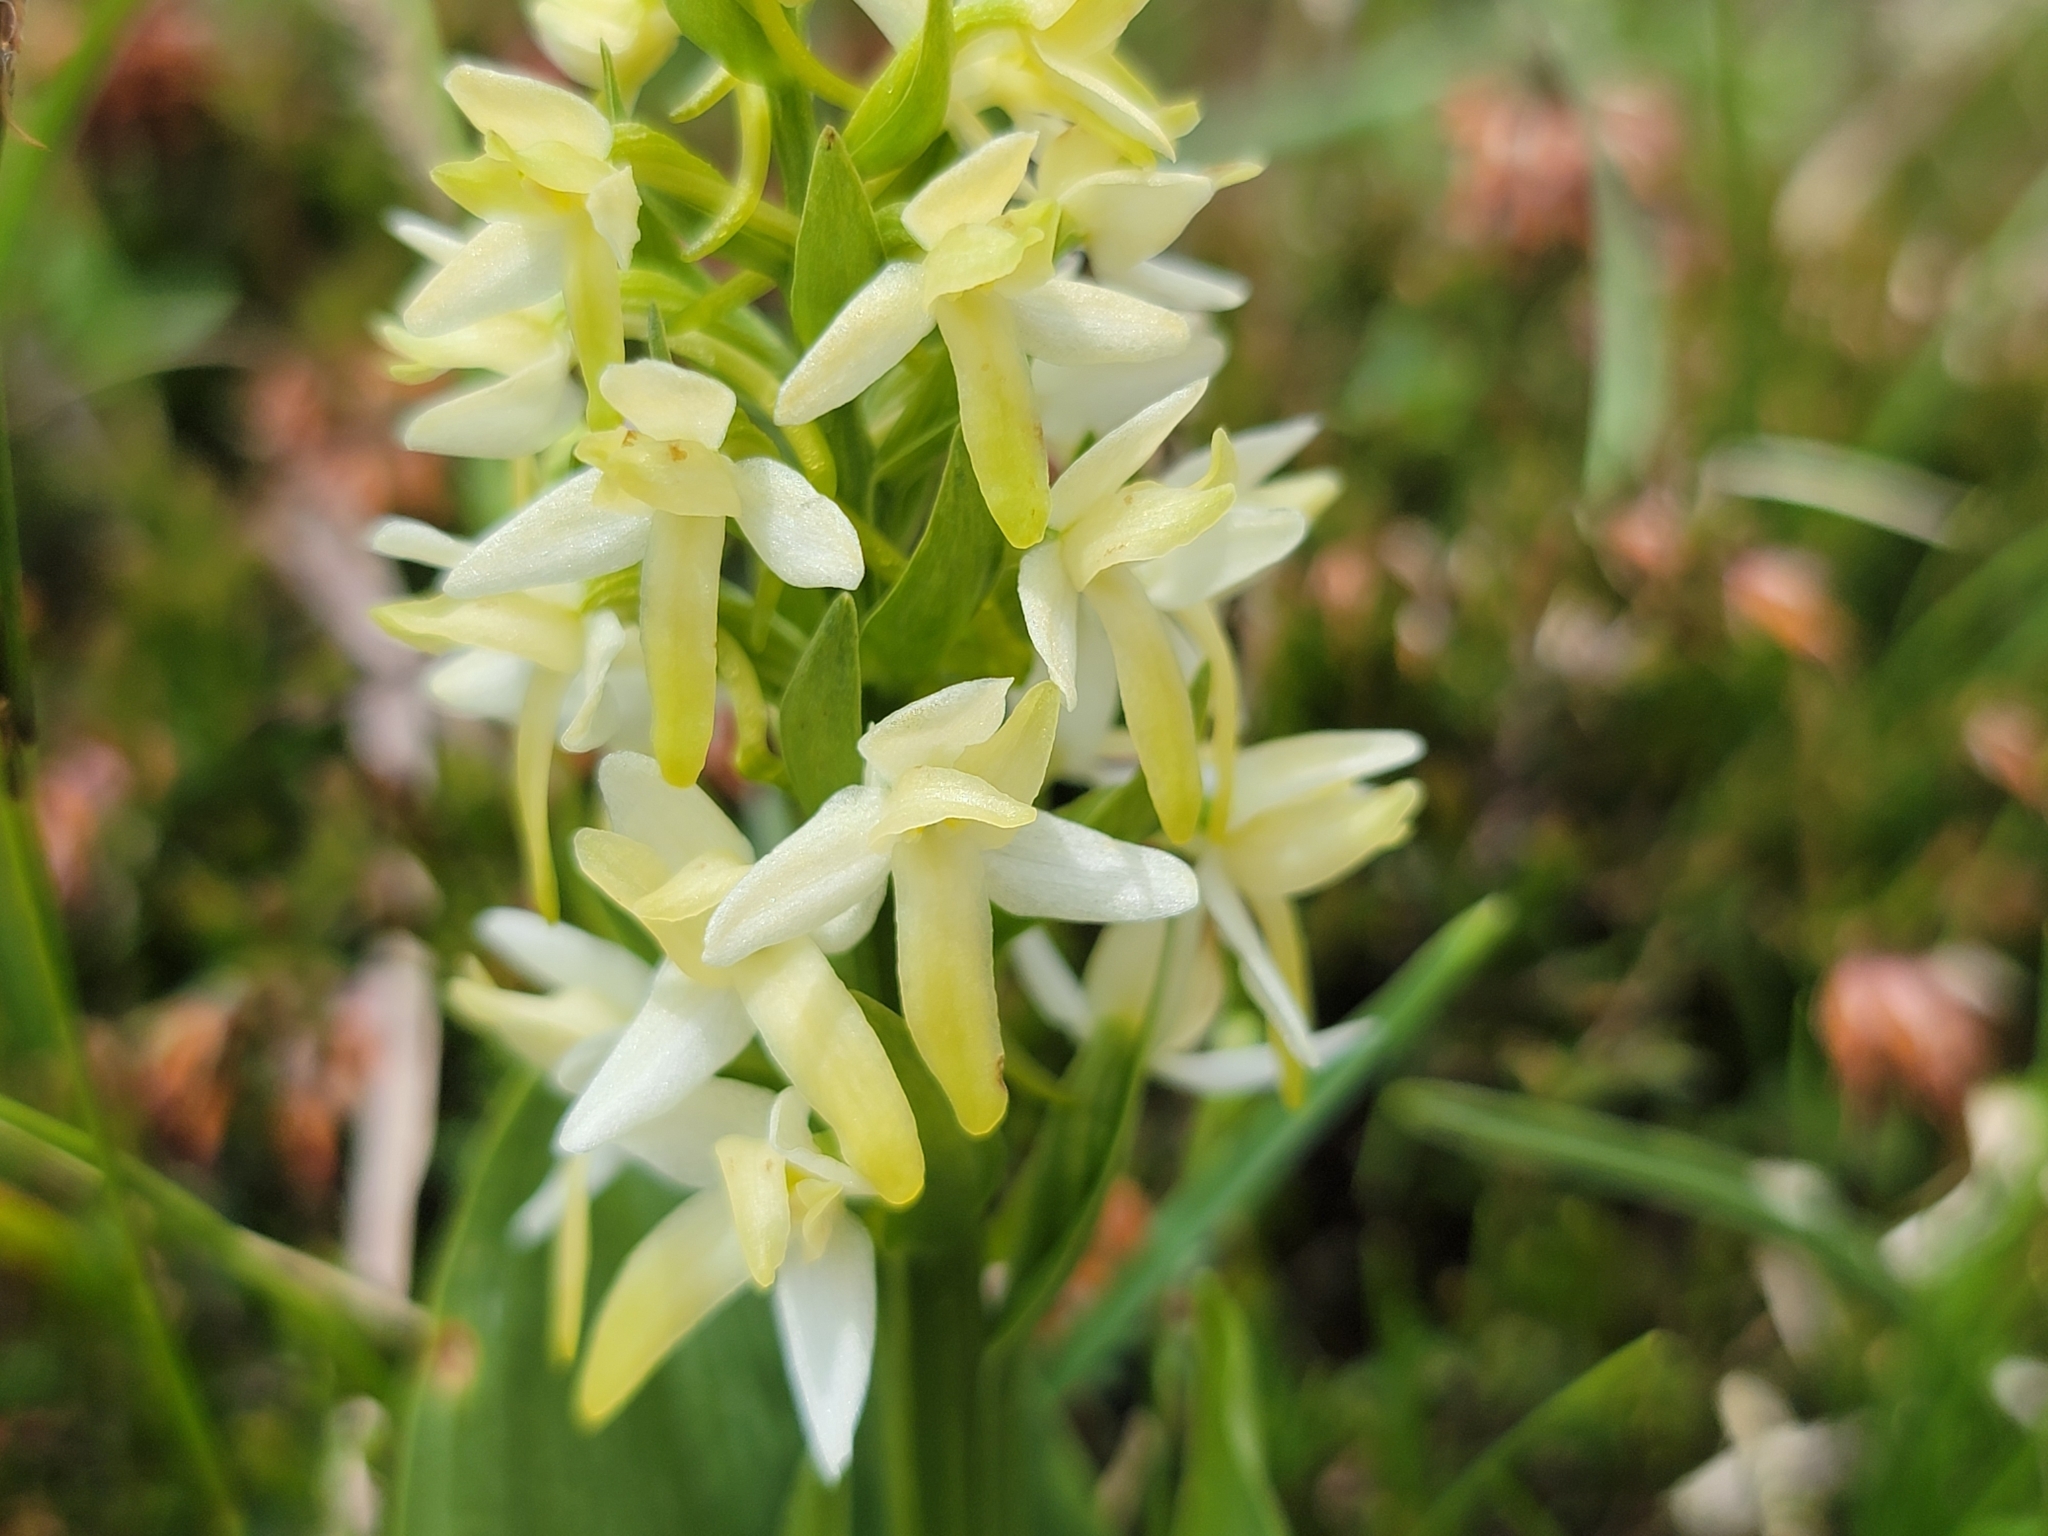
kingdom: Plantae
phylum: Tracheophyta
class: Liliopsida
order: Asparagales
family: Orchidaceae
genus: Platanthera
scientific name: Platanthera bifolia
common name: Lesser butterfly-orchid
